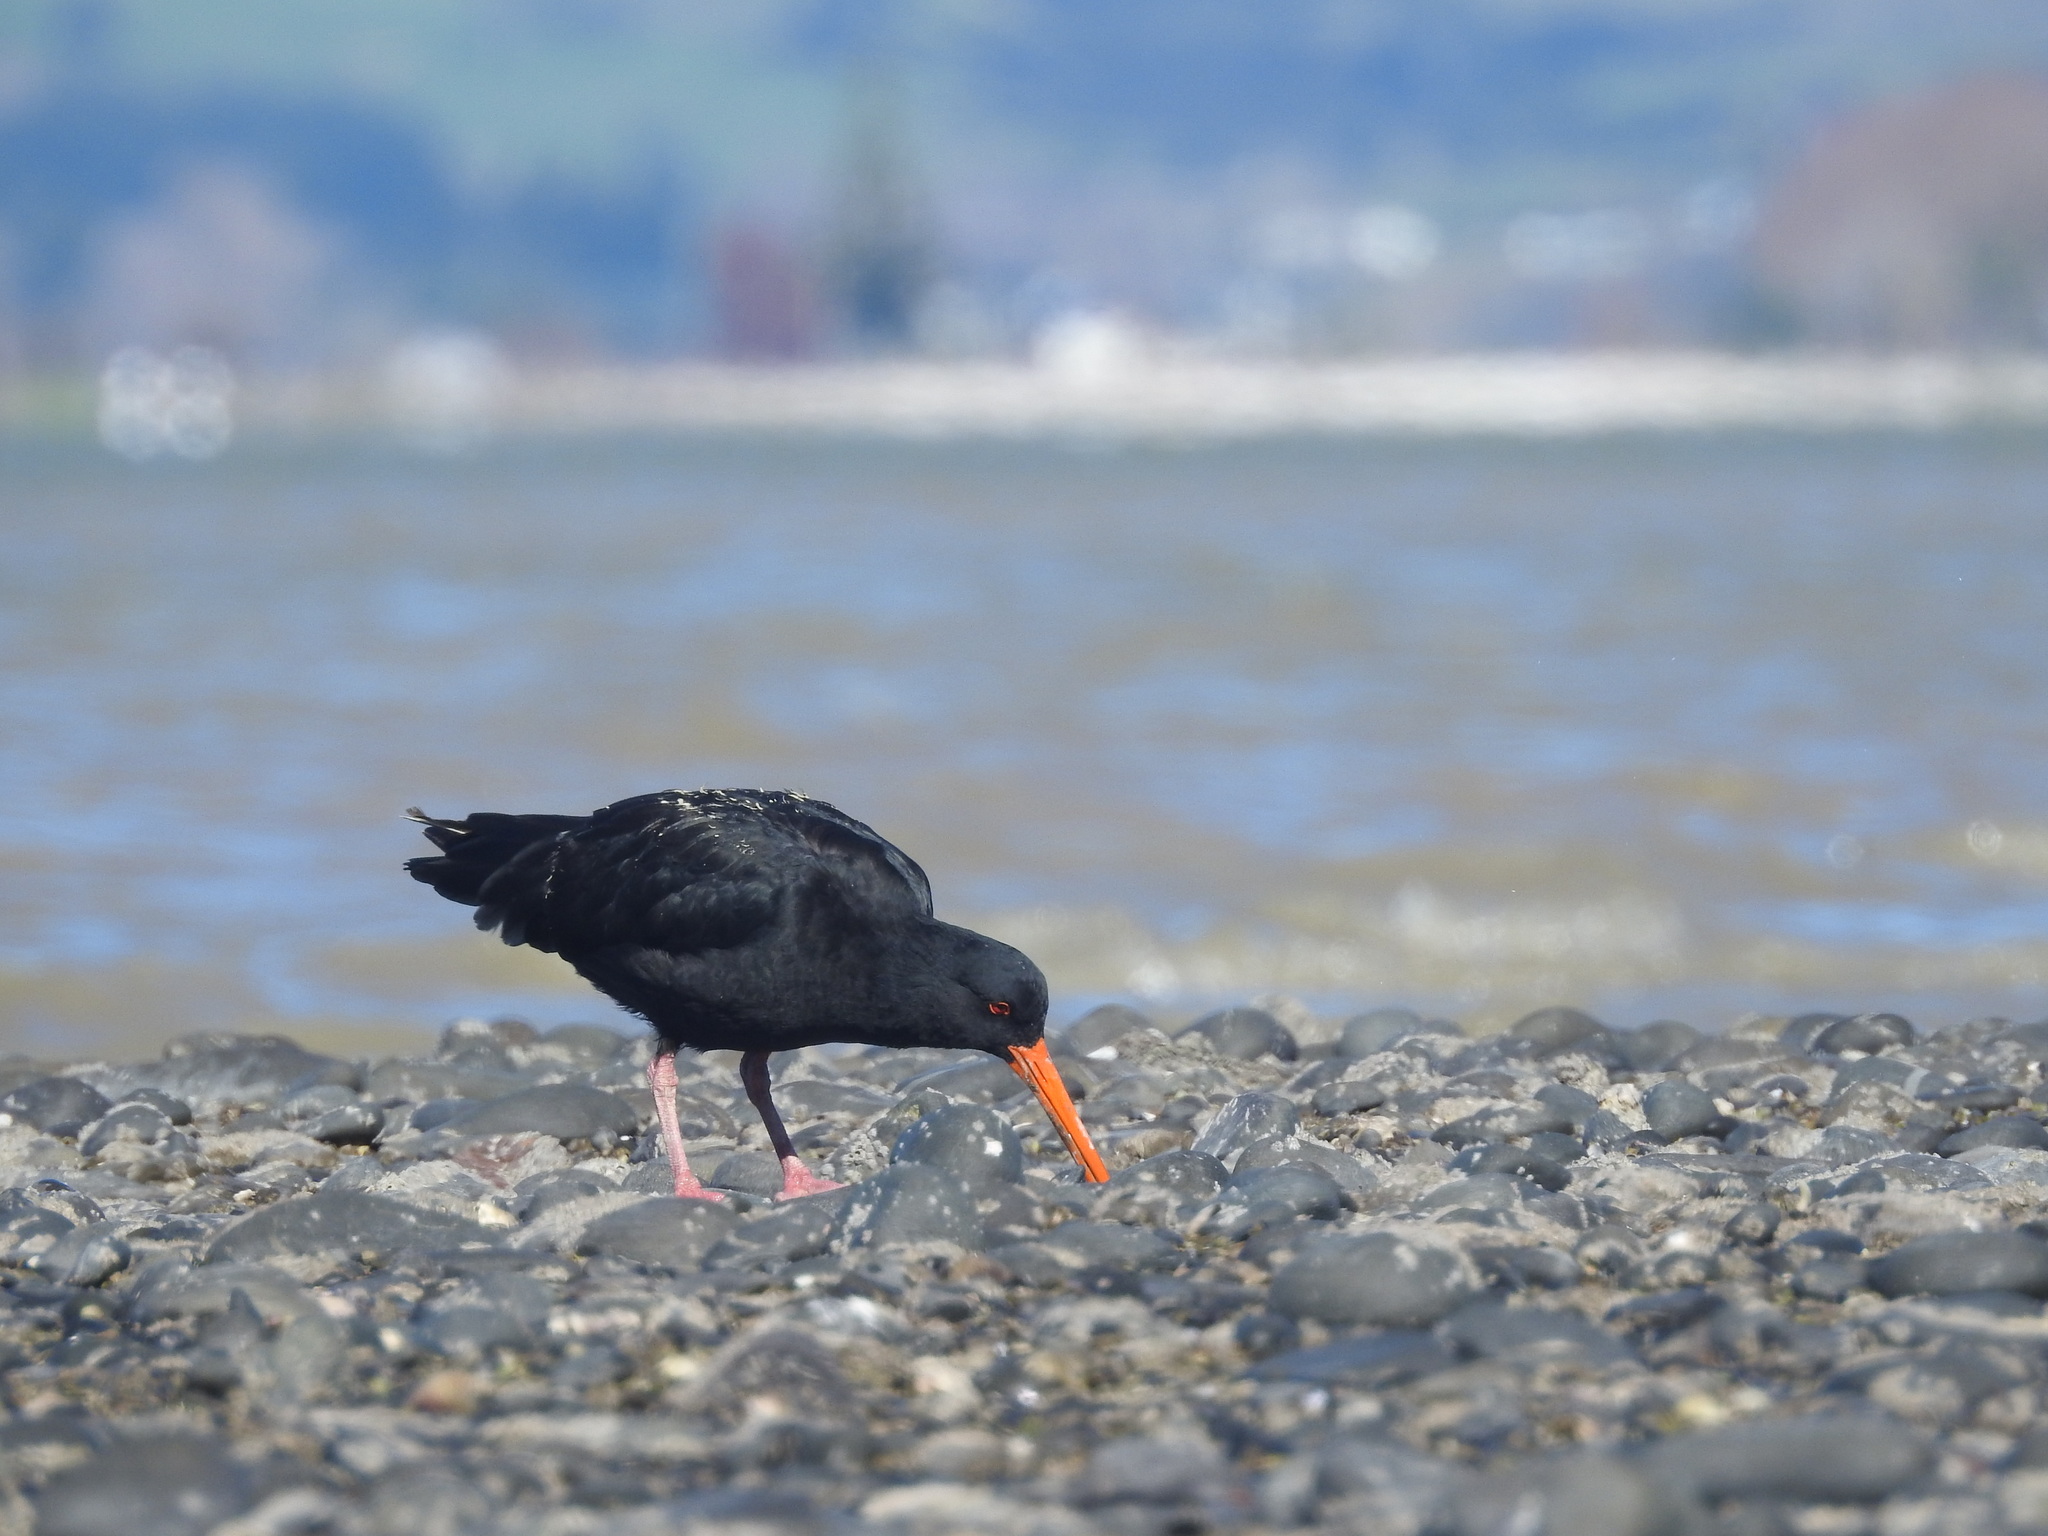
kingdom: Animalia
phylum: Chordata
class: Aves
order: Charadriiformes
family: Haematopodidae
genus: Haematopus
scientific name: Haematopus unicolor
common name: Variable oystercatcher
